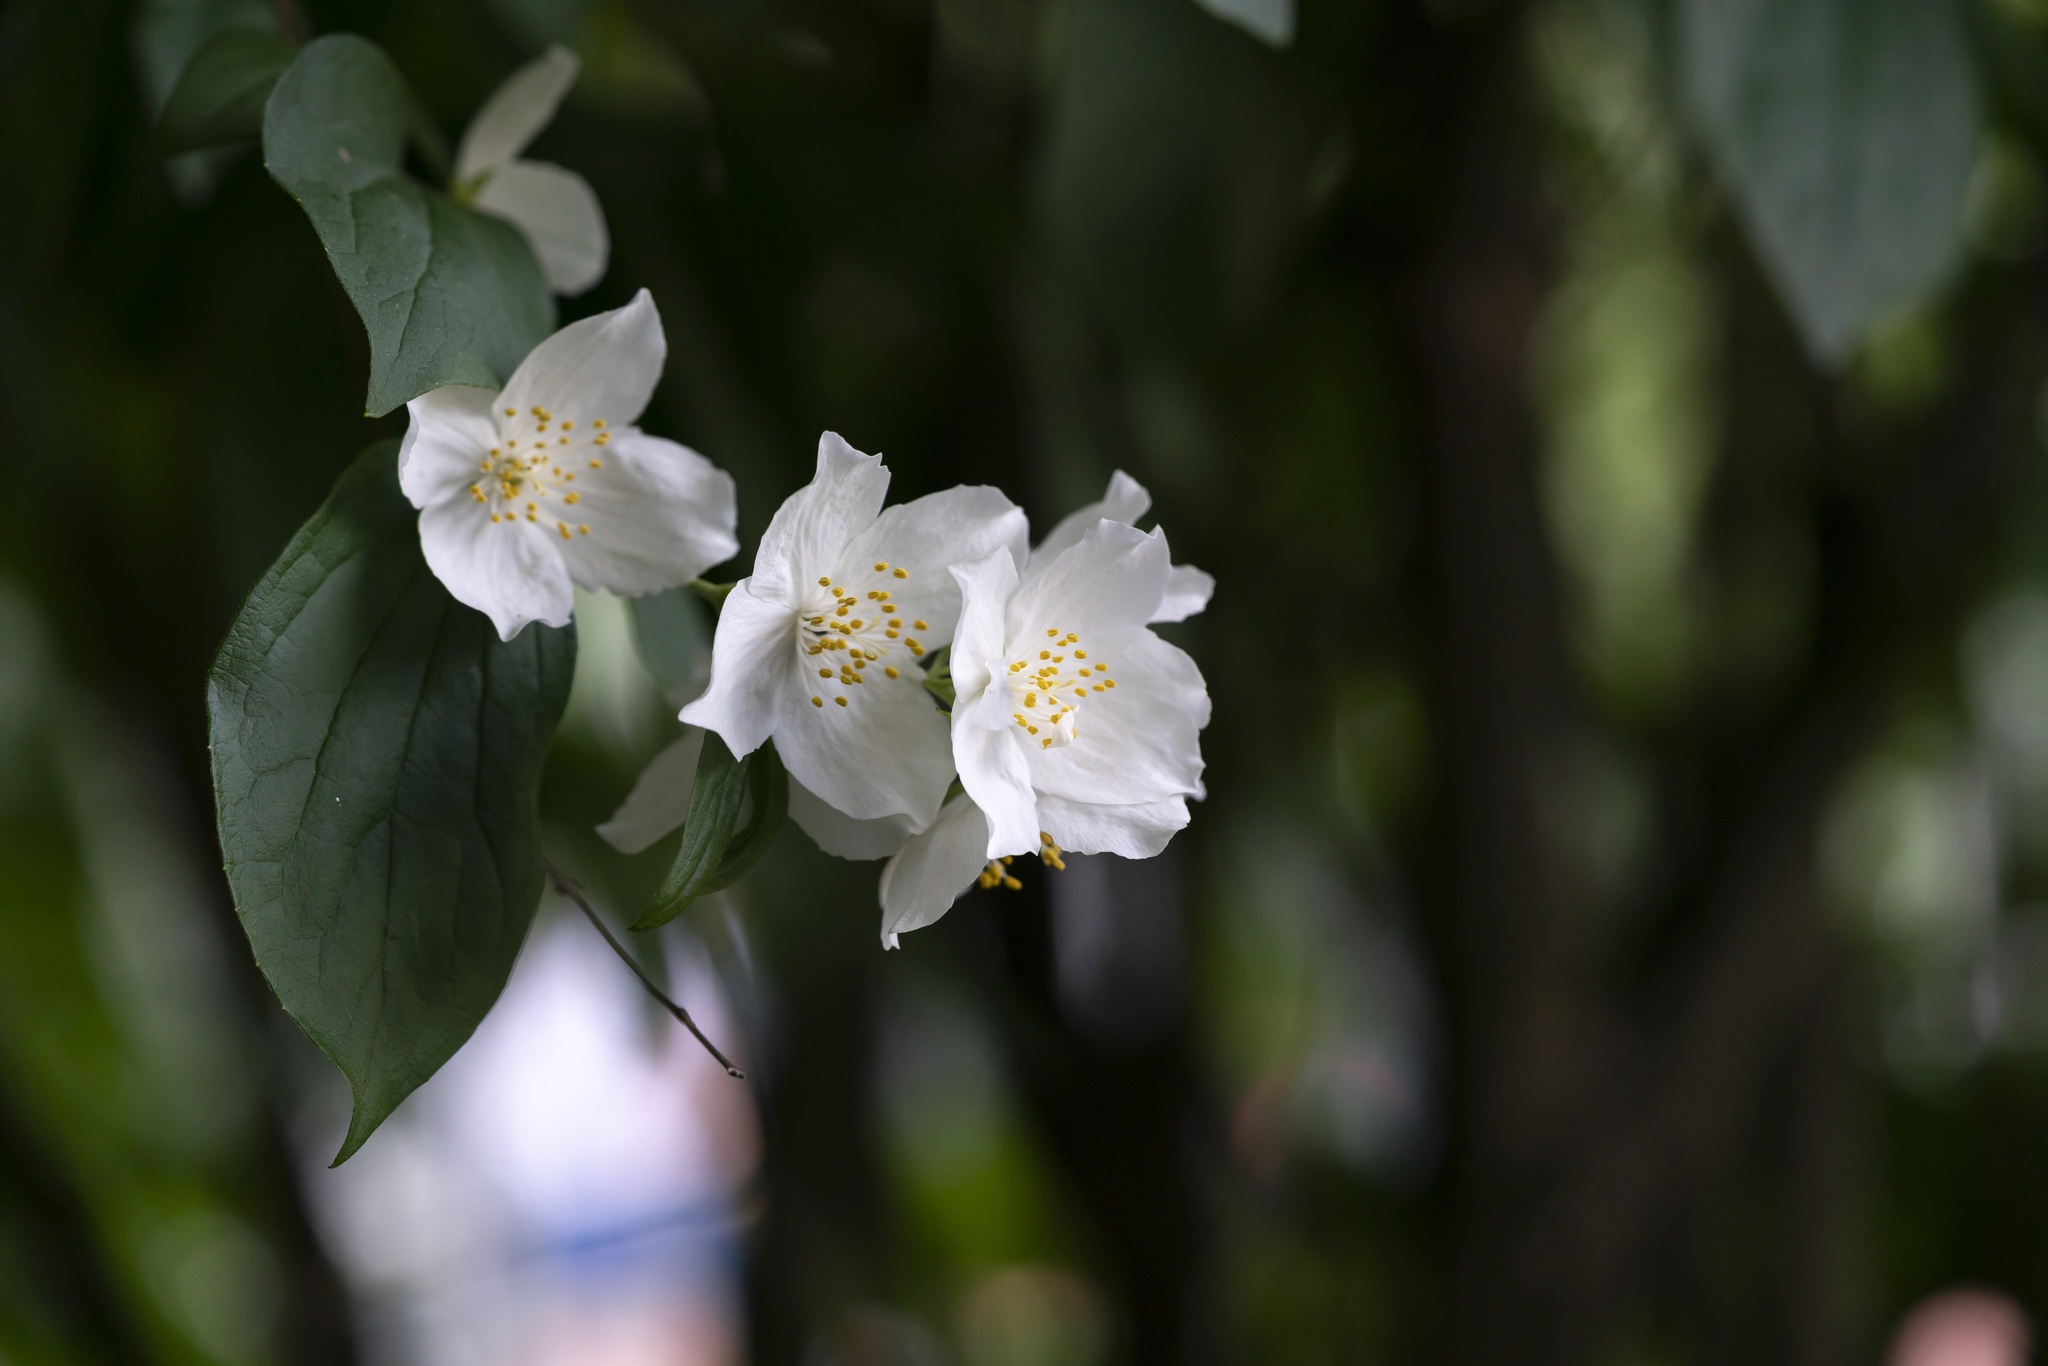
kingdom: Plantae
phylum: Tracheophyta
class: Magnoliopsida
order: Cornales
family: Hydrangeaceae
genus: Philadelphus
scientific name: Philadelphus coronarius
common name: Mock orange
